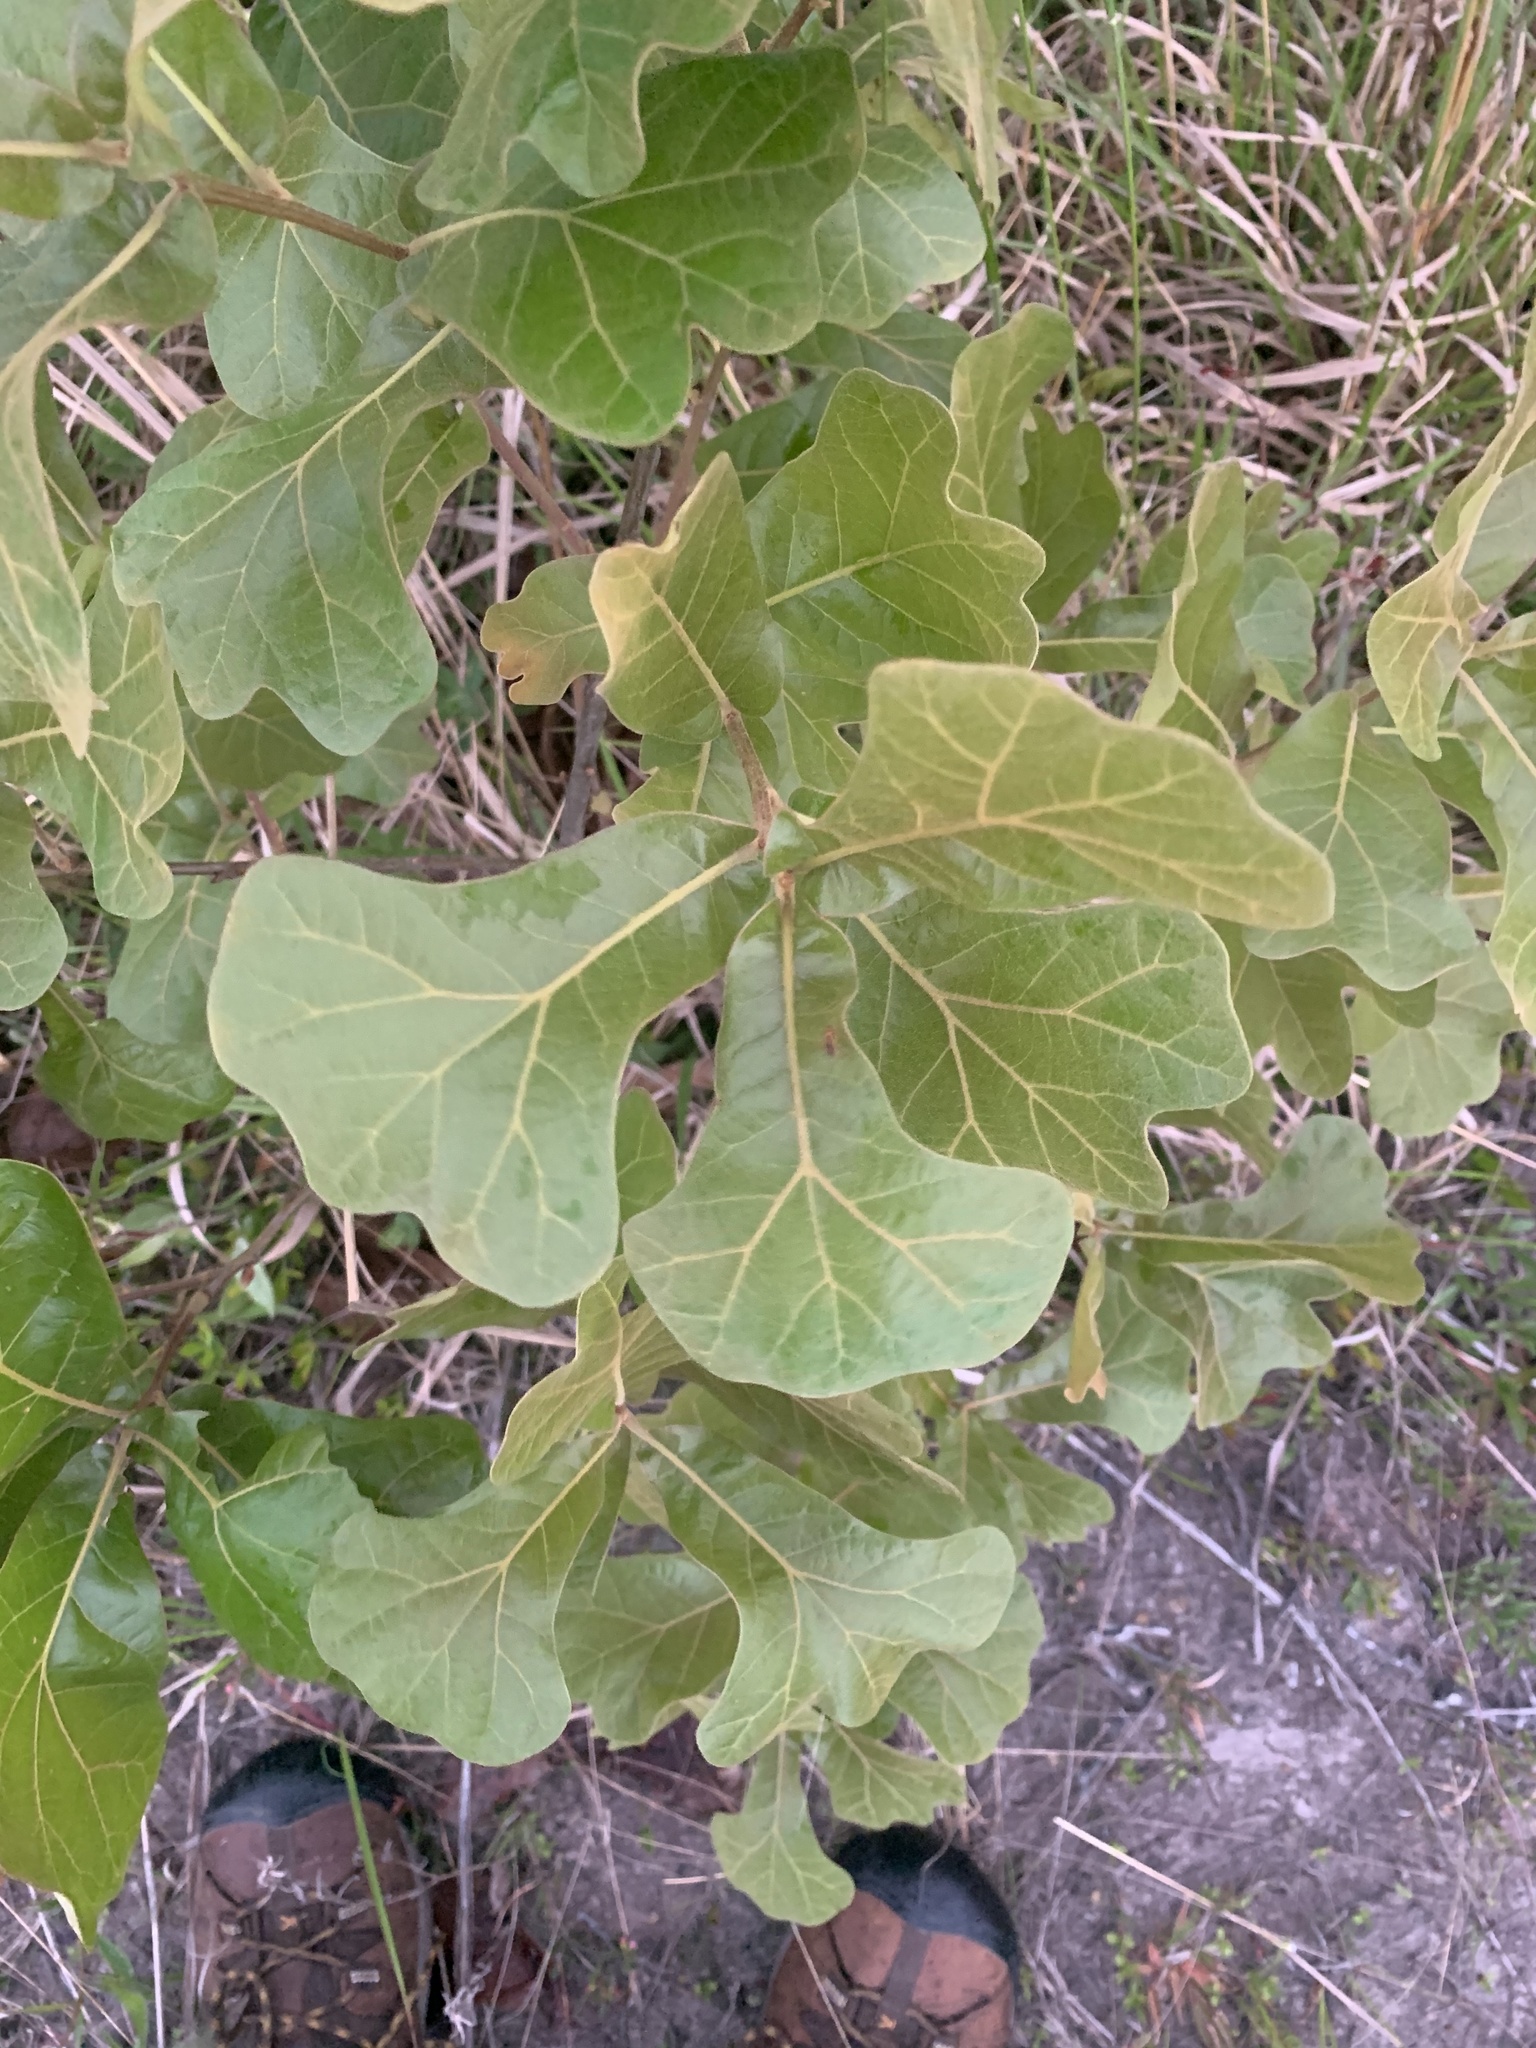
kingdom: Plantae
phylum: Tracheophyta
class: Magnoliopsida
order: Fagales
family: Fagaceae
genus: Quercus
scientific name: Quercus marilandica
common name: Blackjack oak
